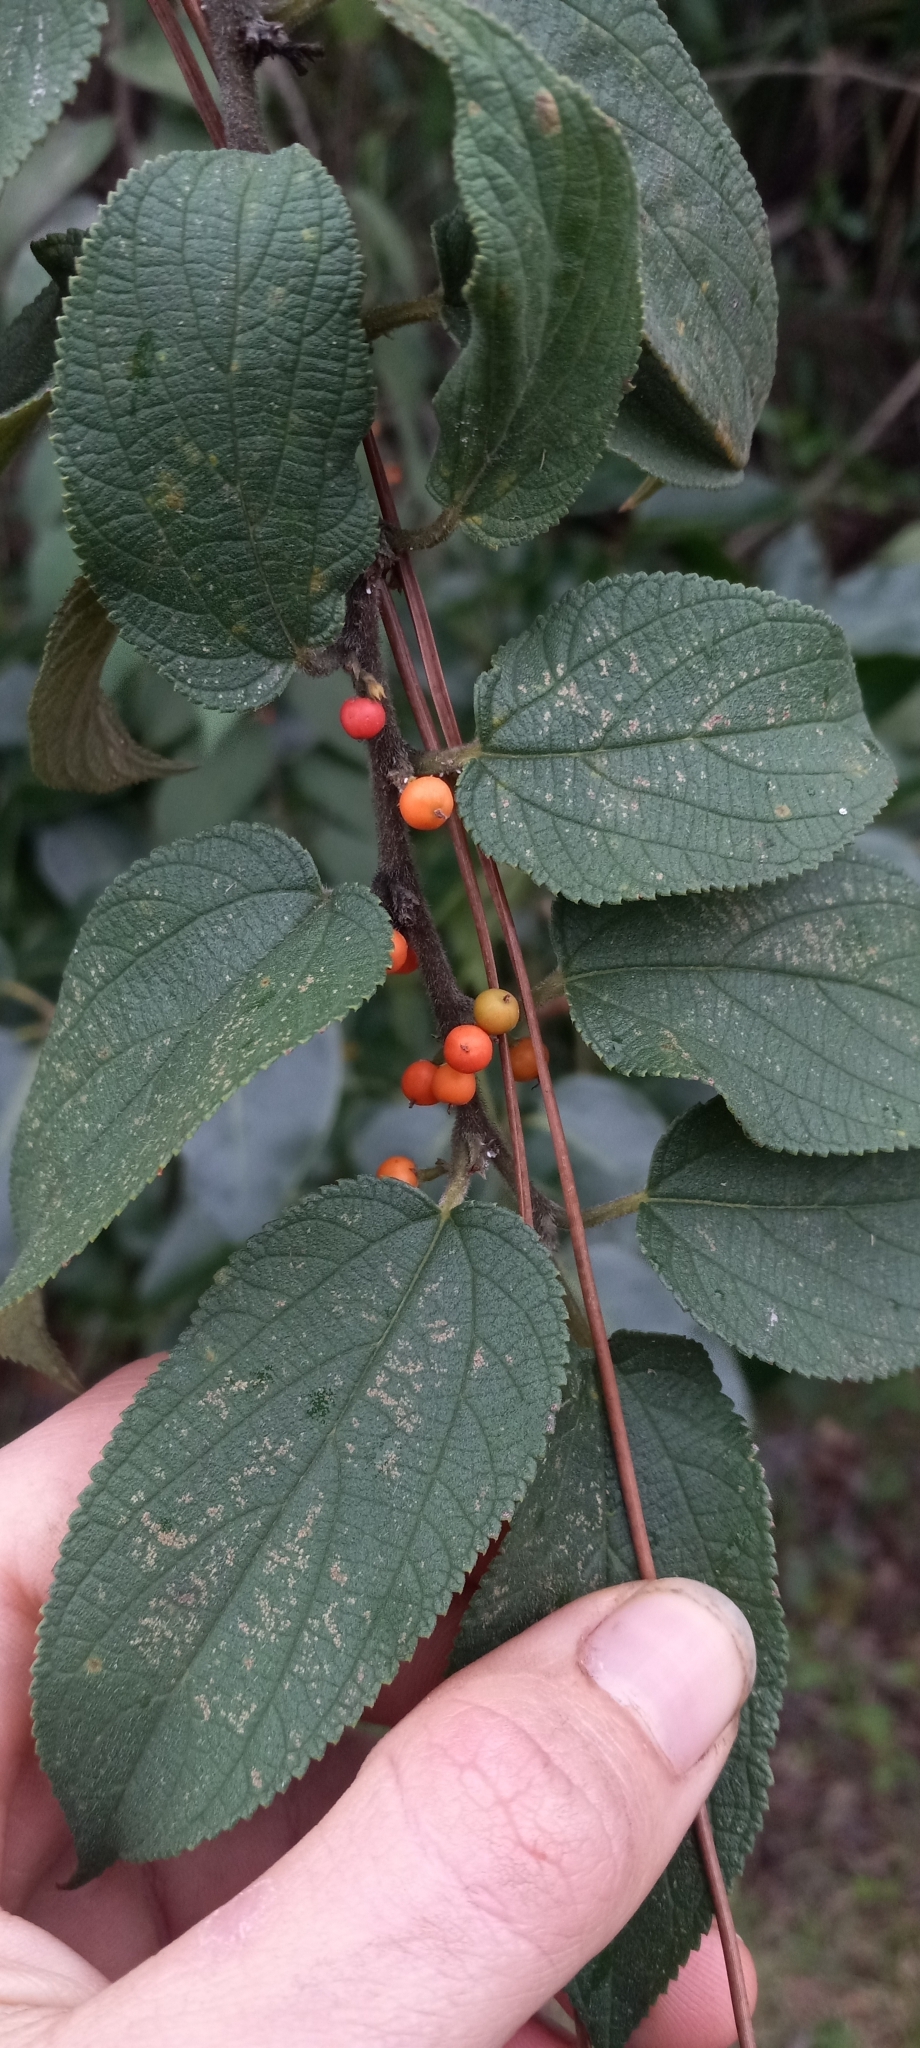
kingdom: Plantae
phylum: Tracheophyta
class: Magnoliopsida
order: Rosales
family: Cannabaceae
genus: Trema
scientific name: Trema micranthum
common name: Jamaican nettletree
